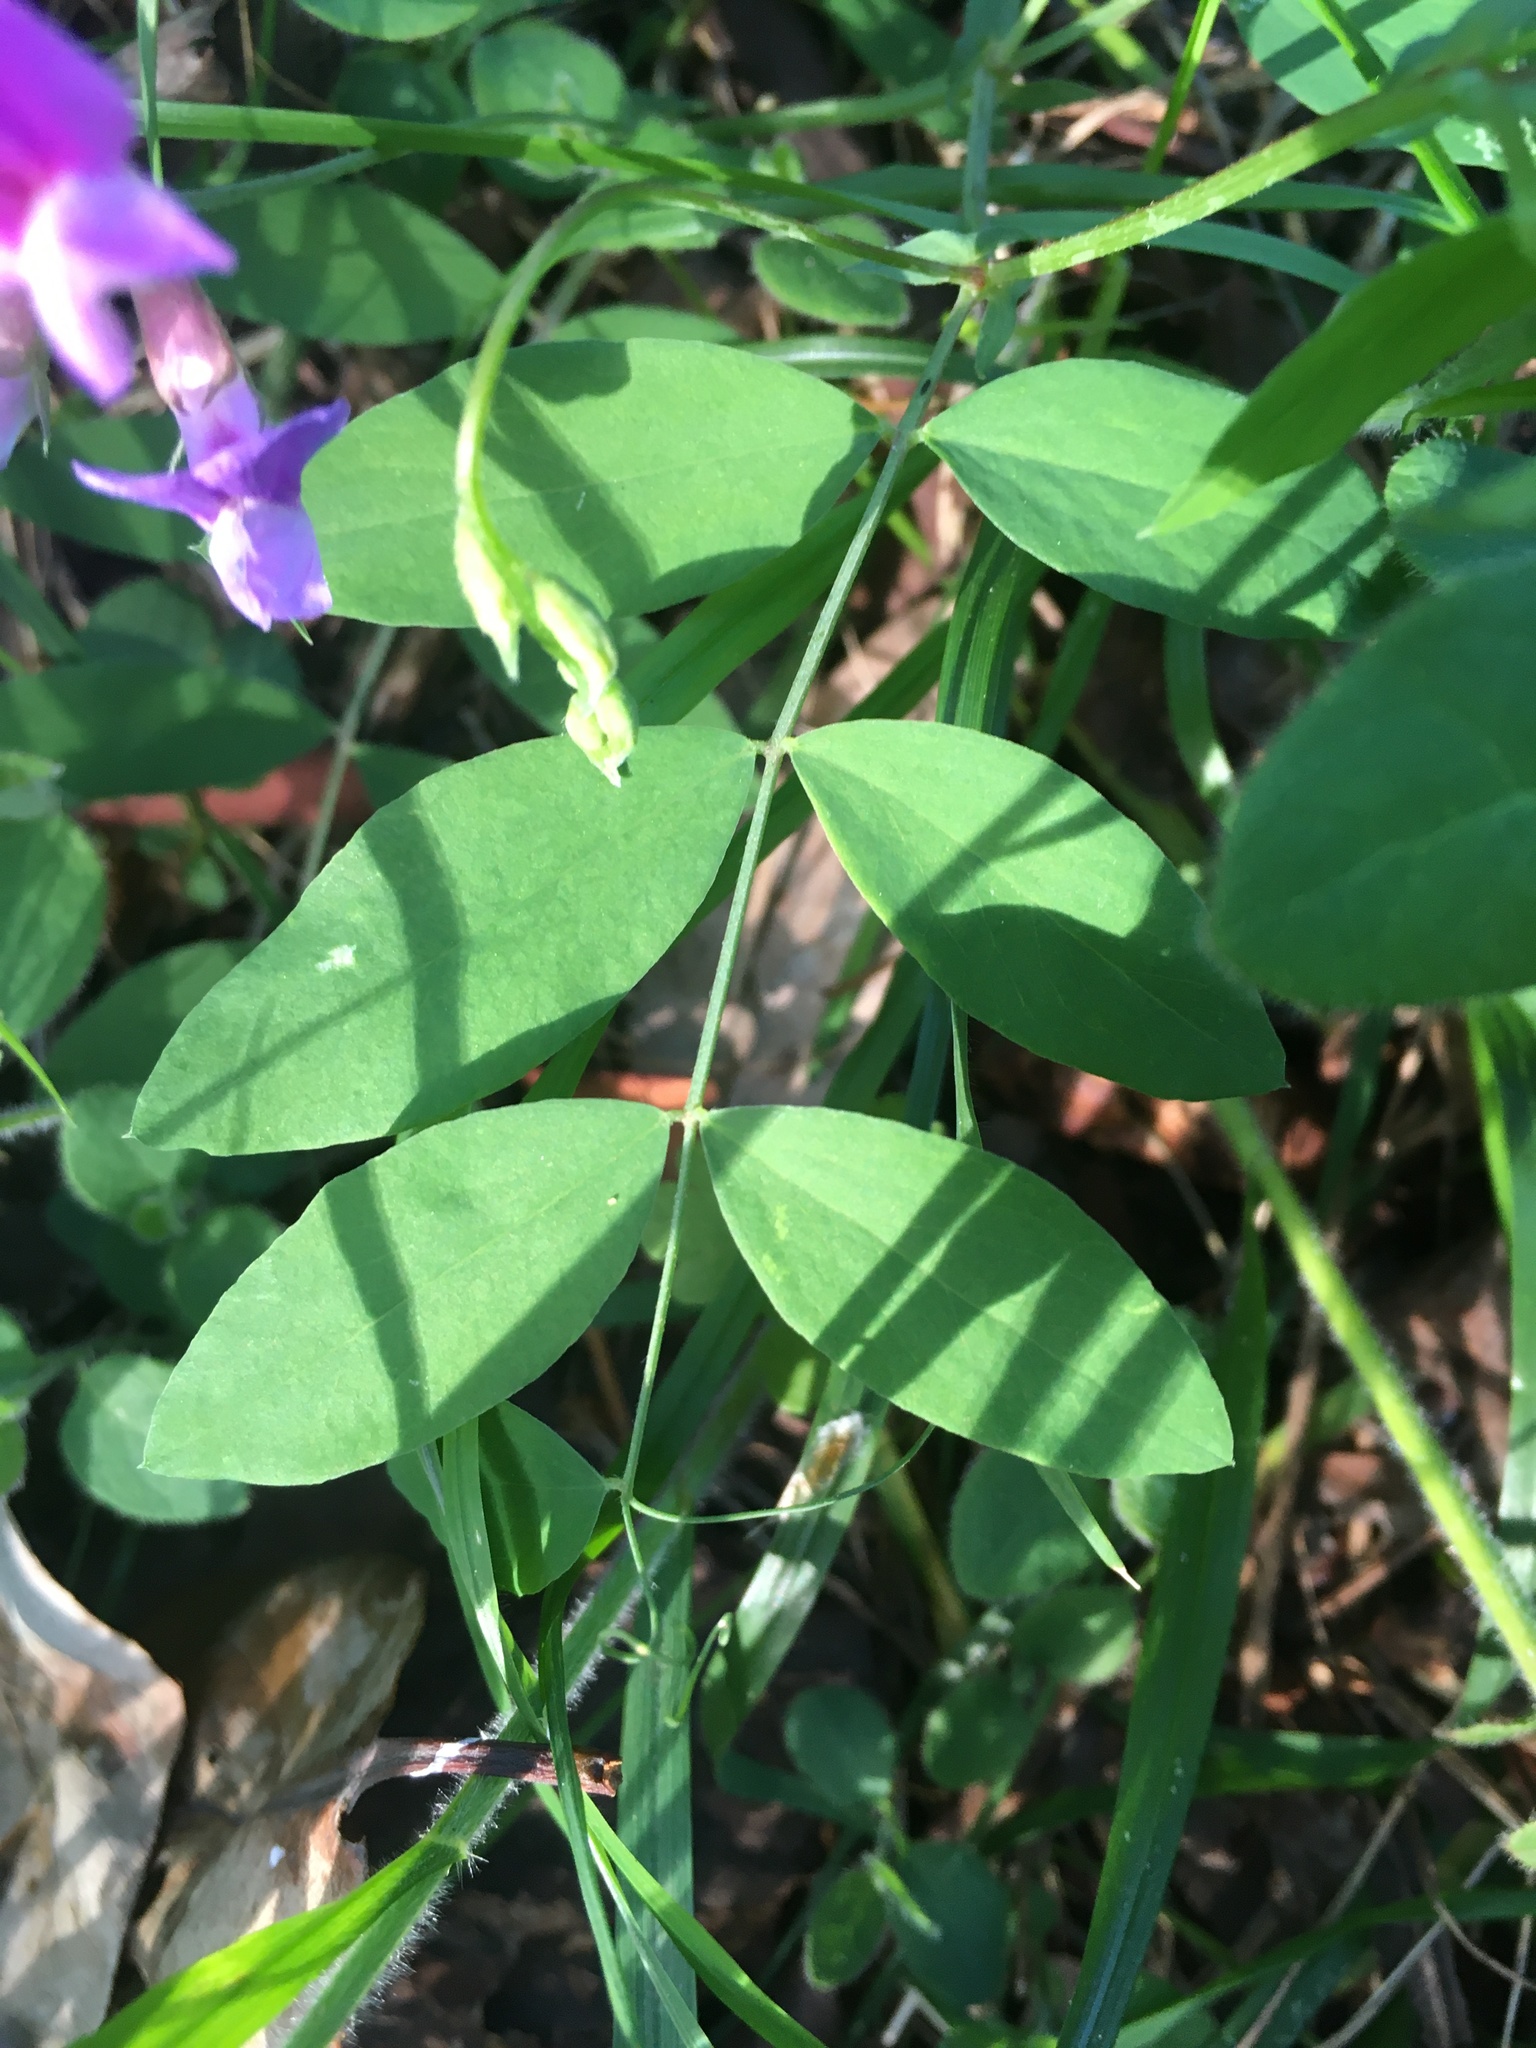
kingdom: Plantae
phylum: Tracheophyta
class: Magnoliopsida
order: Fabales
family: Fabaceae
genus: Lathyrus
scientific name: Lathyrus nevadensis
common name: Sierra nevada peavine
